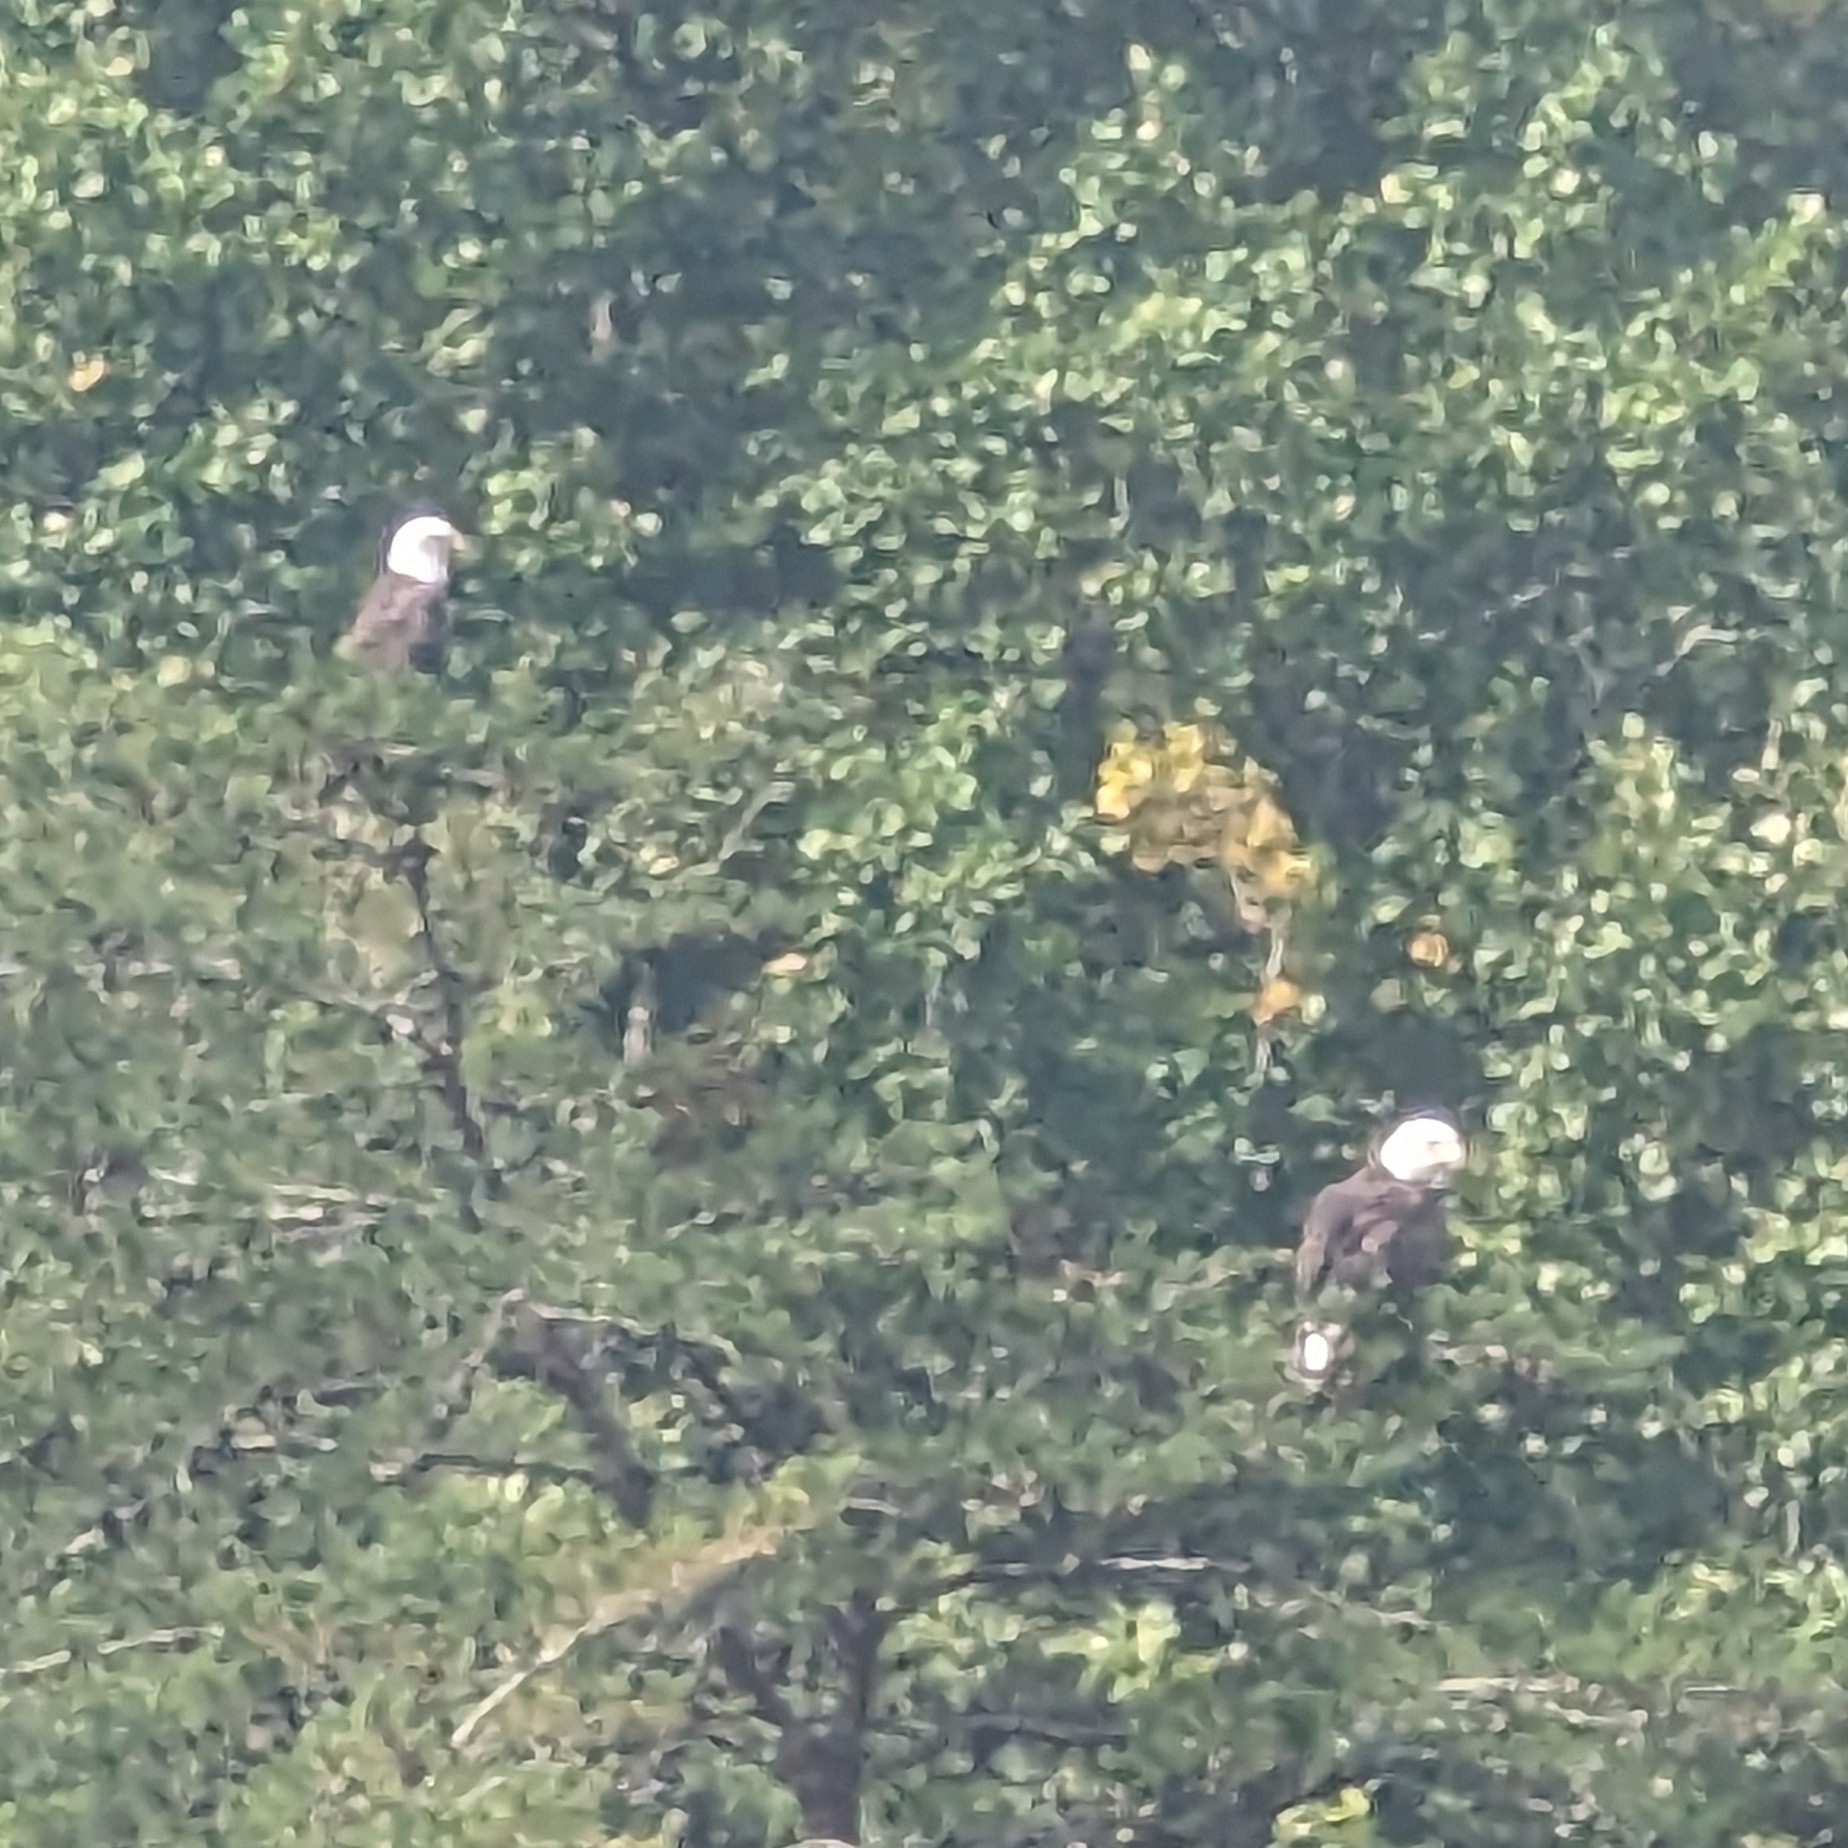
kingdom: Animalia
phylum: Chordata
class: Aves
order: Accipitriformes
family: Accipitridae
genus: Haliaeetus
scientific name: Haliaeetus leucocephalus
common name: Bald eagle
